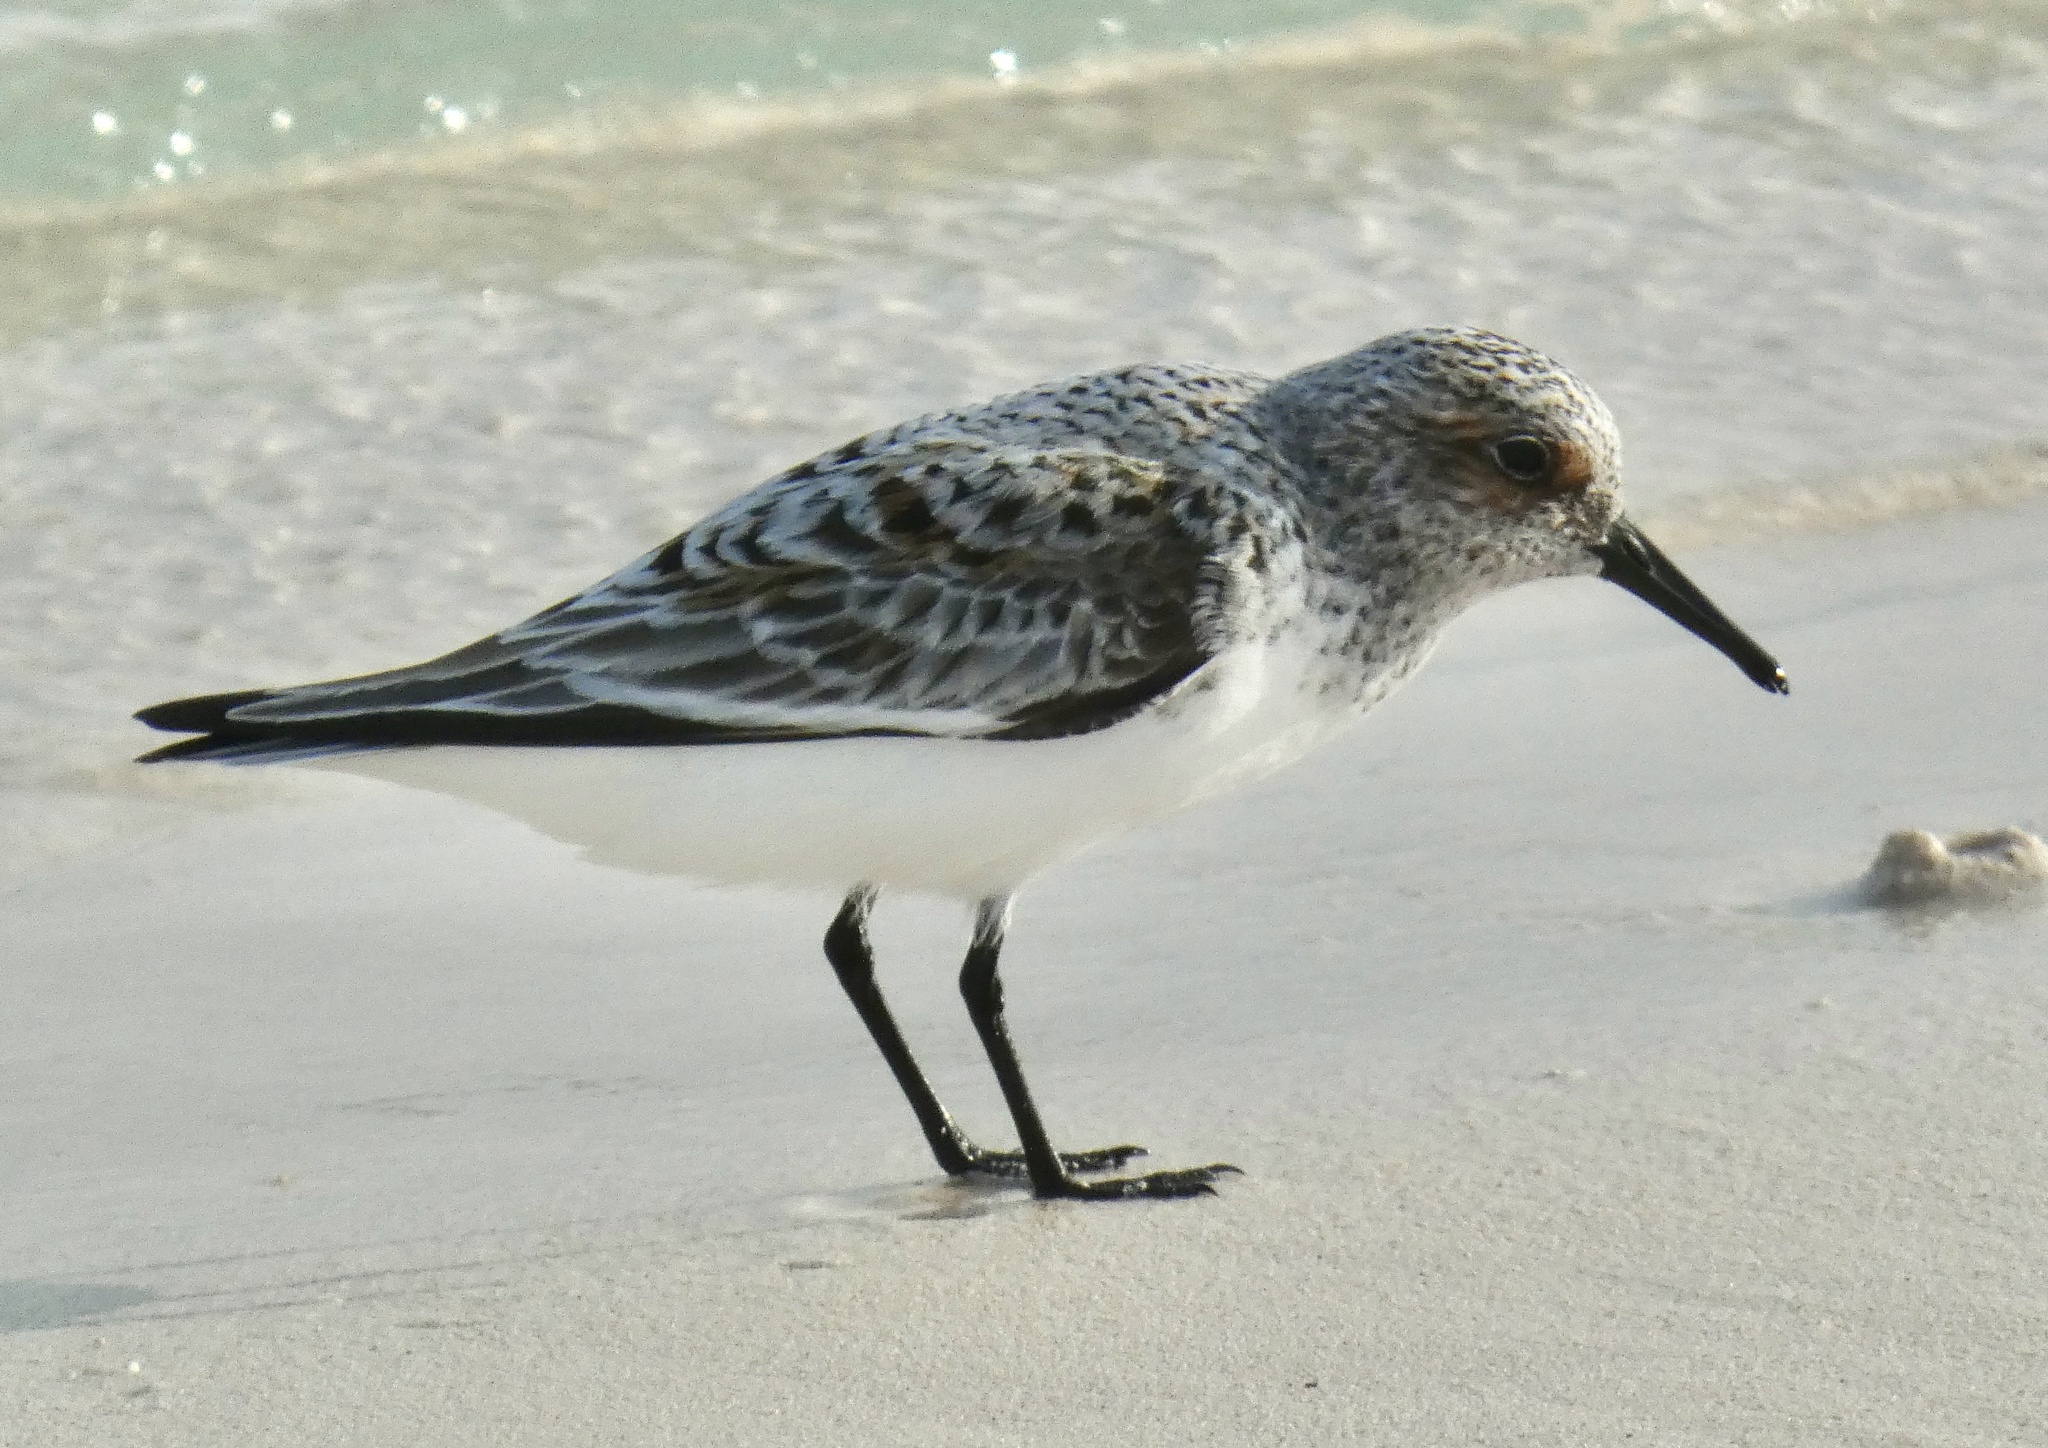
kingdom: Animalia
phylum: Chordata
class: Aves
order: Charadriiformes
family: Scolopacidae
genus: Calidris
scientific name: Calidris alba
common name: Sanderling
